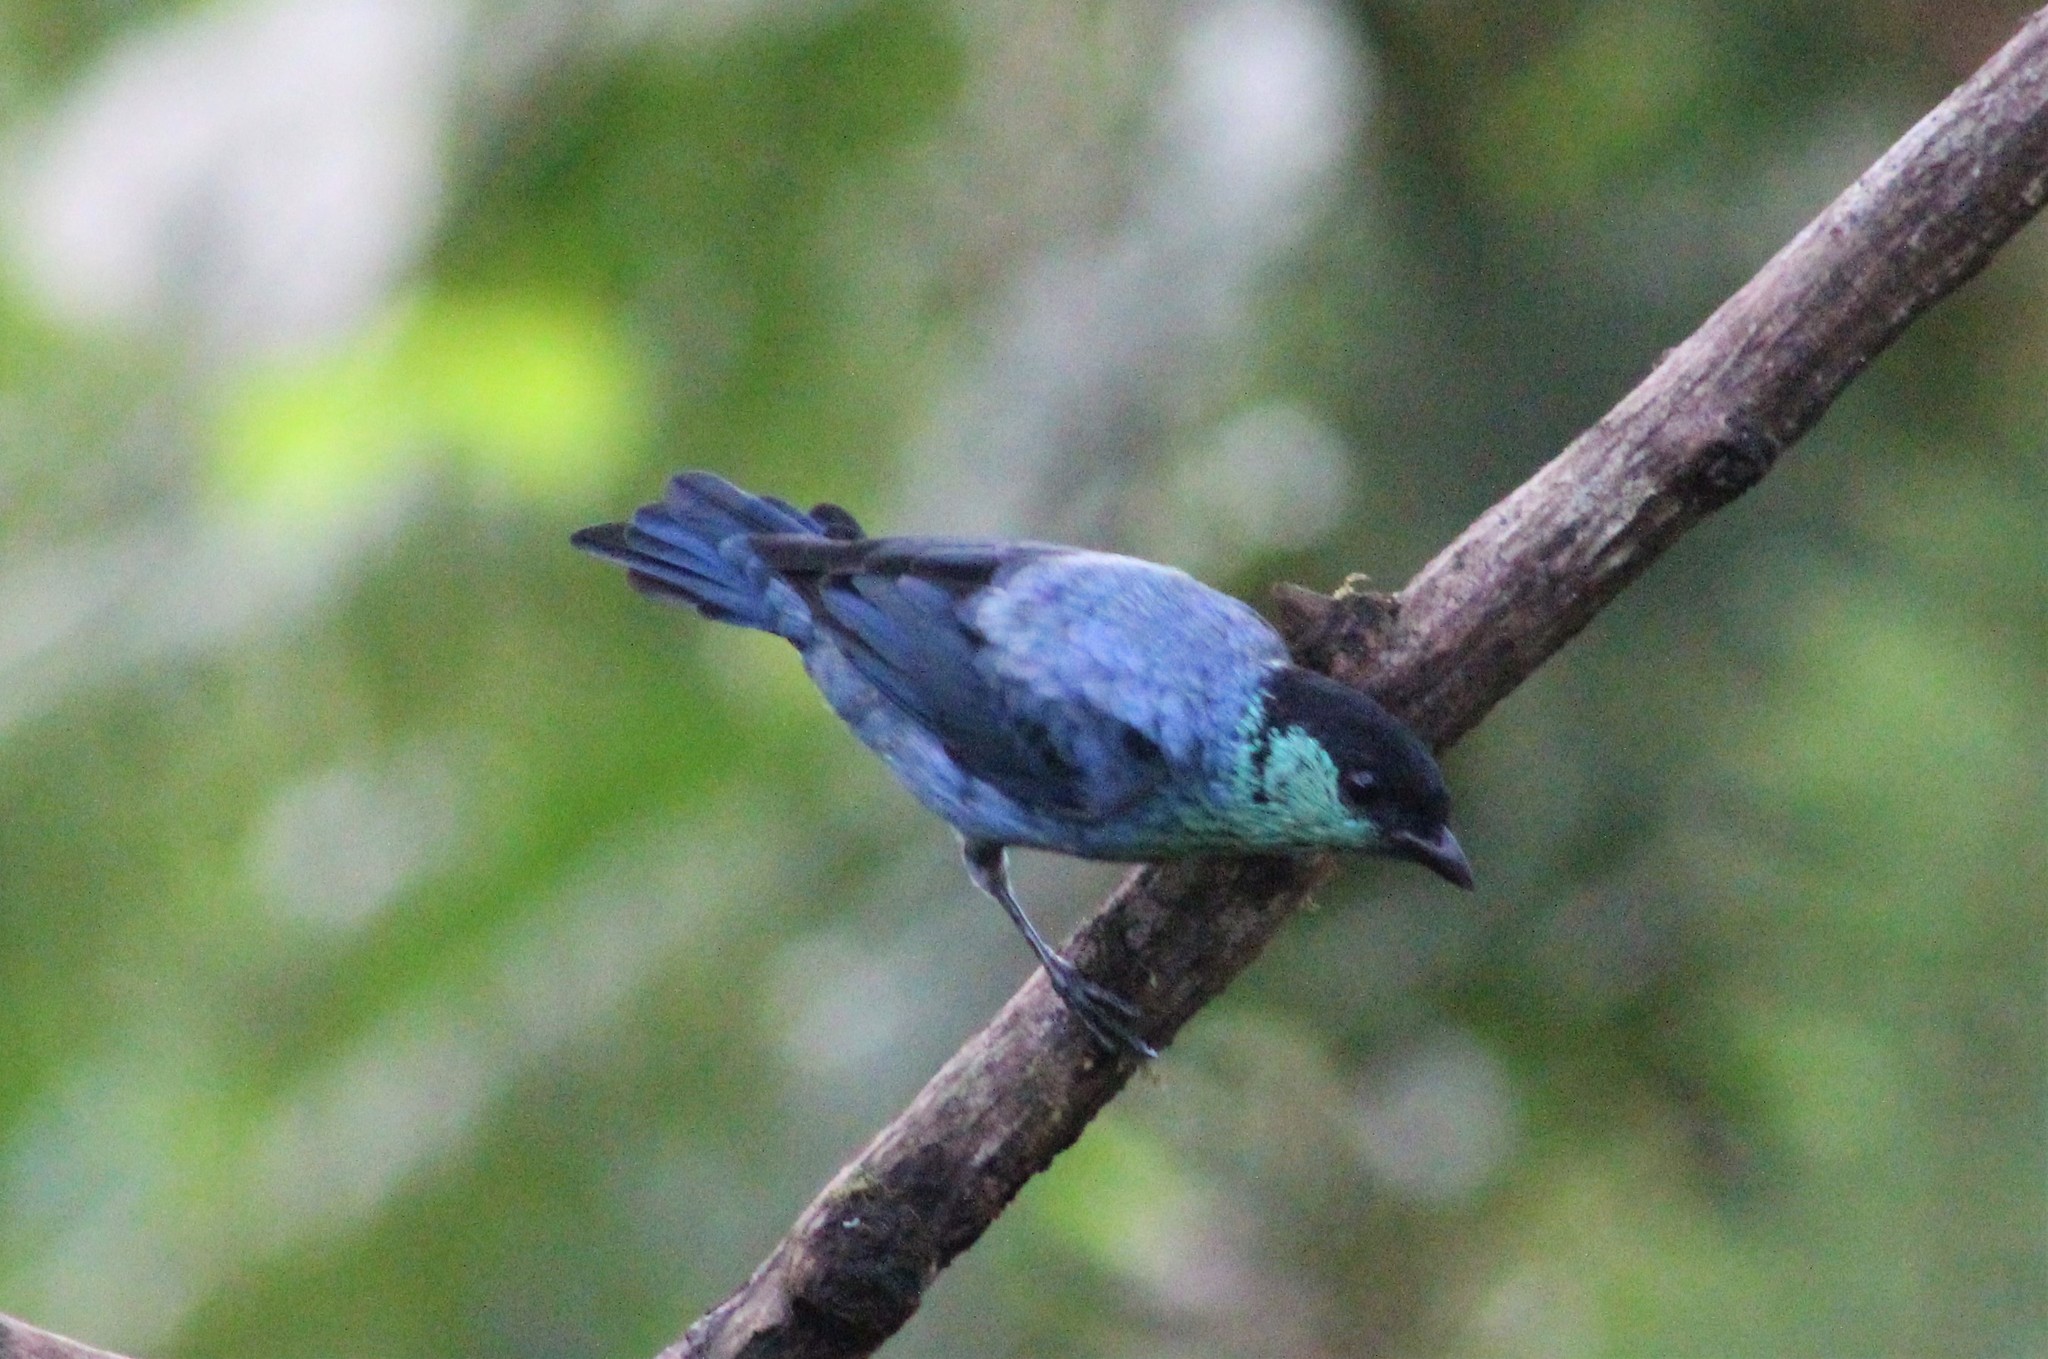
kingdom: Animalia
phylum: Chordata
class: Aves
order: Passeriformes
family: Thraupidae
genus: Stilpnia
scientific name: Stilpnia heinei
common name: Black-capped tanager
